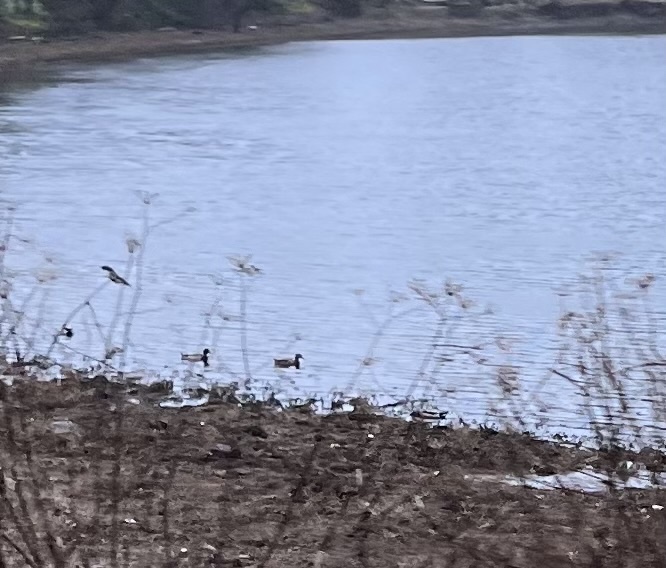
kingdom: Animalia
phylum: Chordata
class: Aves
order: Anseriformes
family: Anatidae
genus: Anas
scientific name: Anas platyrhynchos
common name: Mallard
